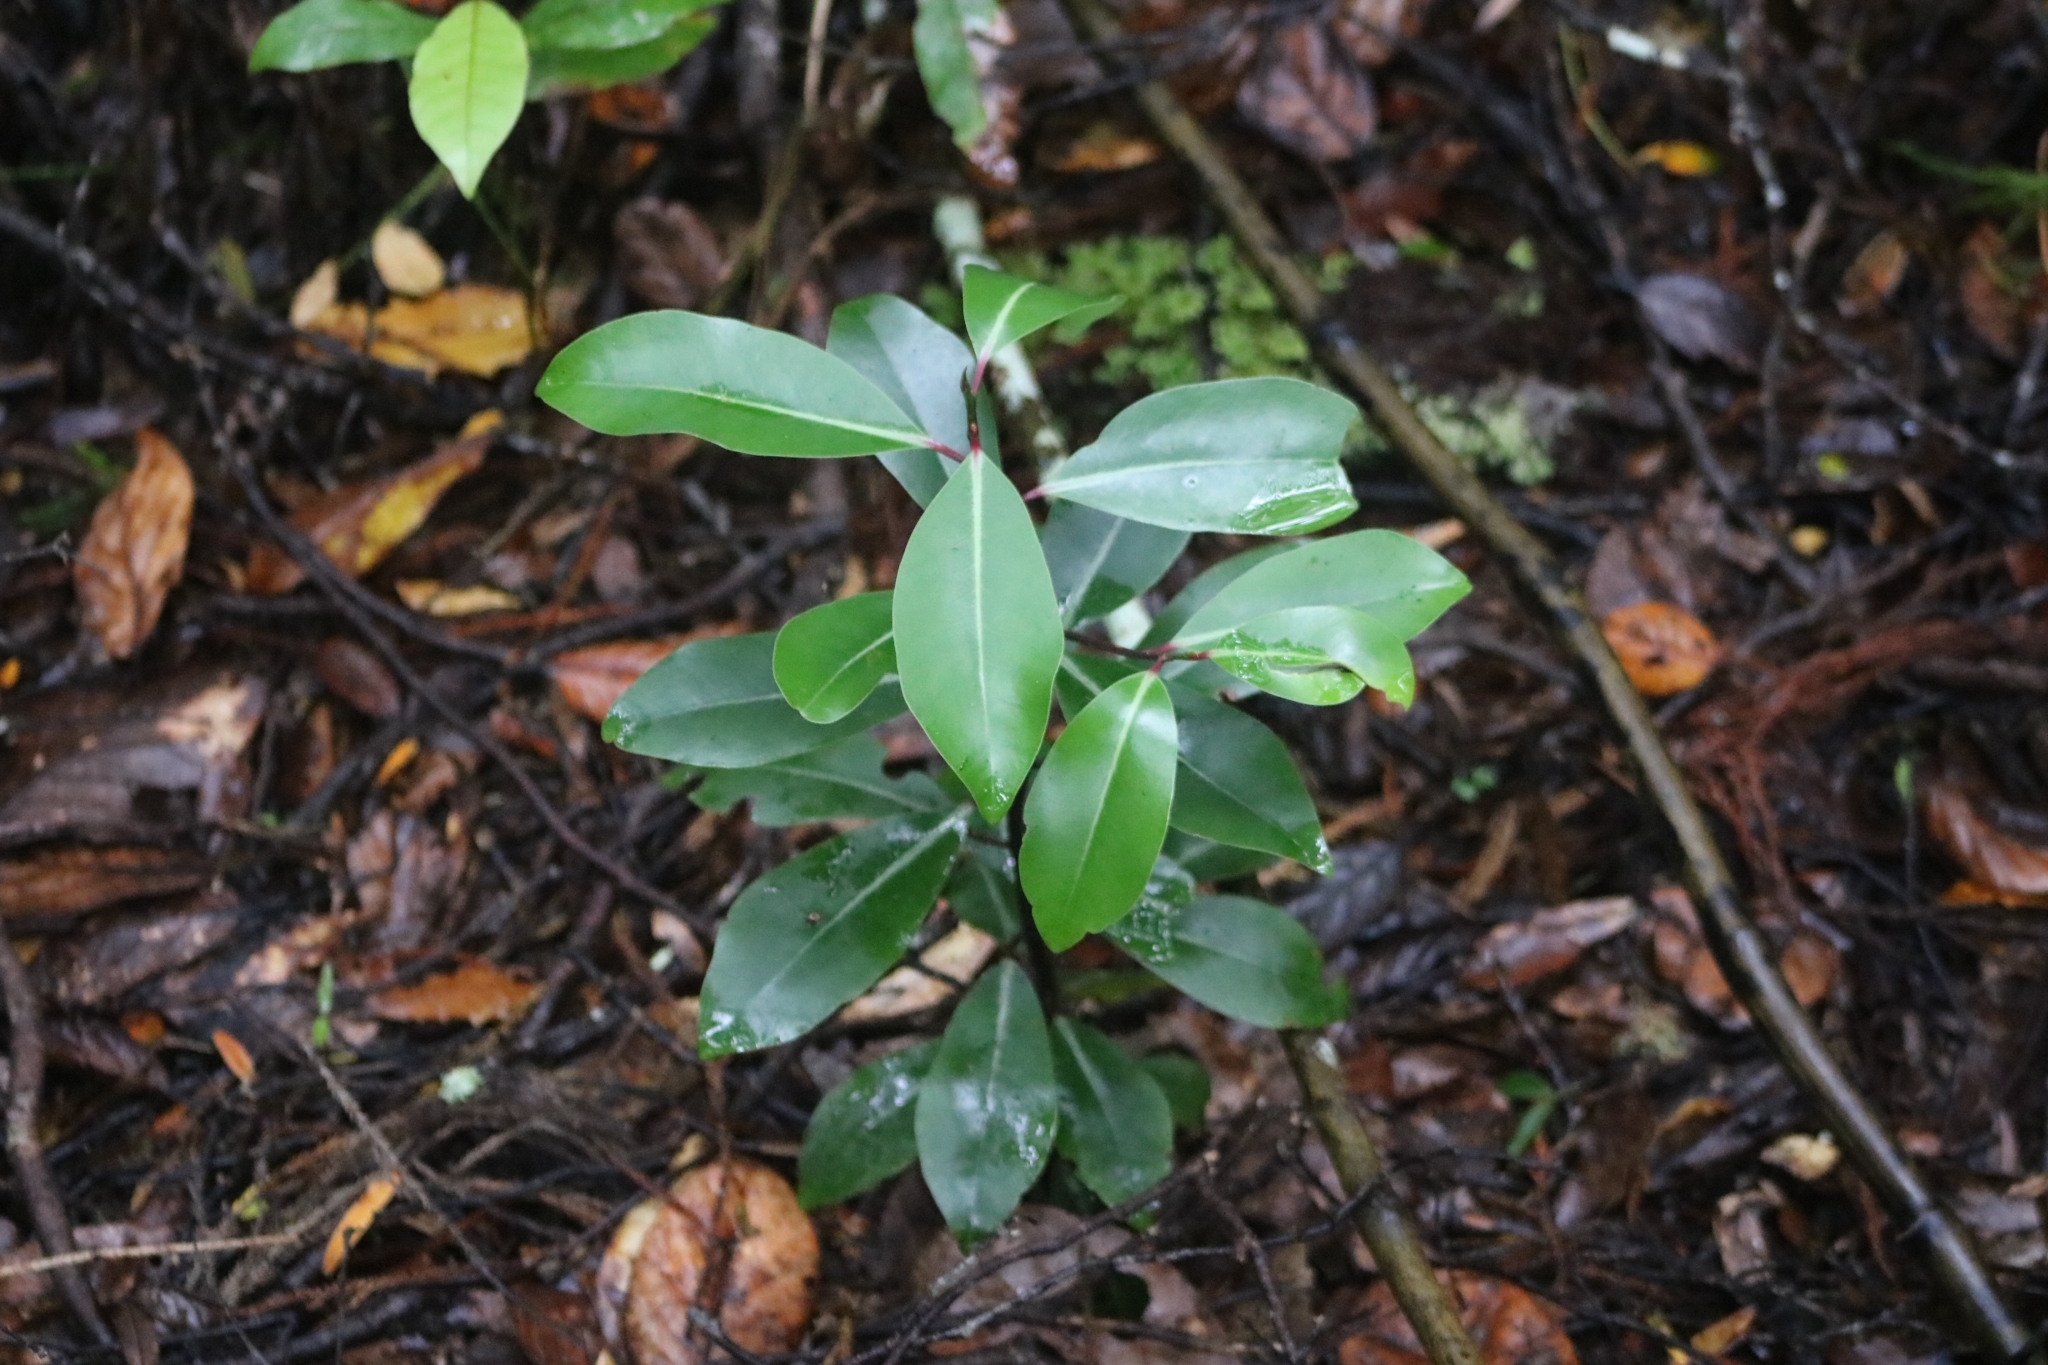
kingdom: Plantae
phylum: Tracheophyta
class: Magnoliopsida
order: Canellales
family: Winteraceae
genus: Pseudowintera
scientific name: Pseudowintera axillaris
